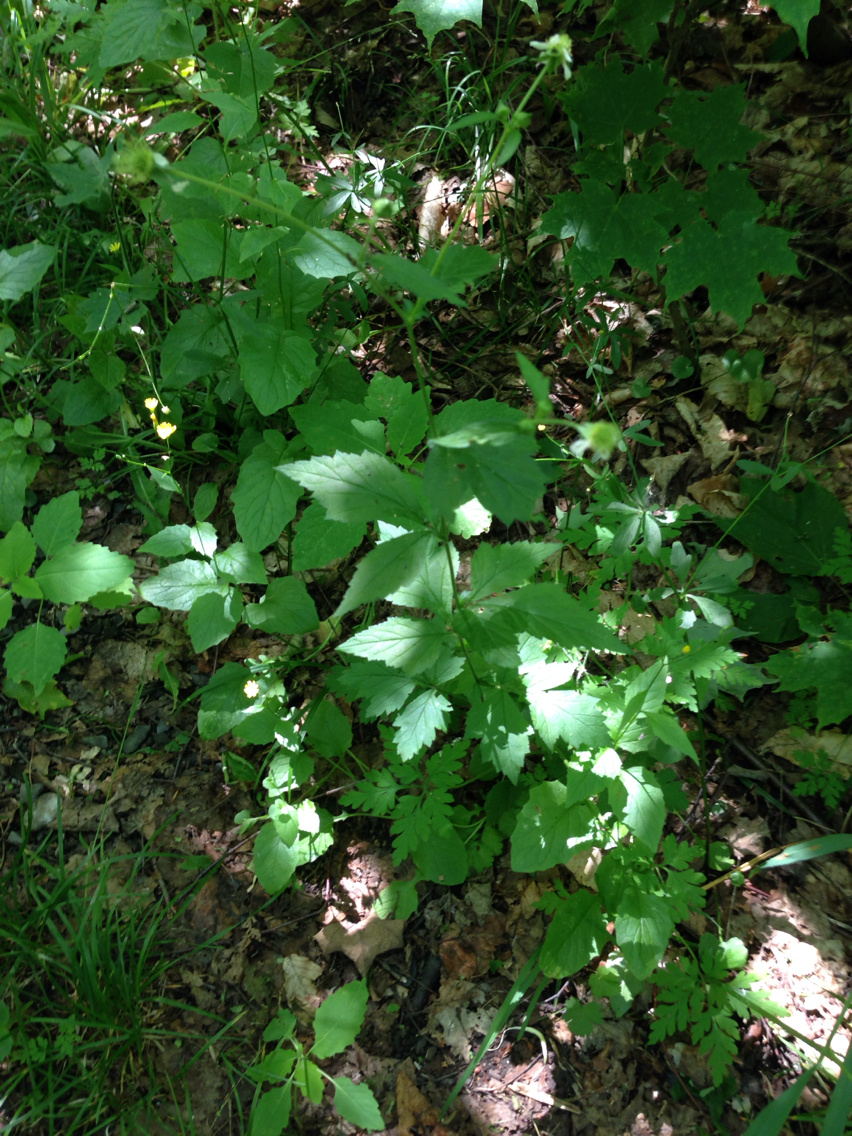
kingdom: Plantae
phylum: Tracheophyta
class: Magnoliopsida
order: Rosales
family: Rosaceae
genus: Geum
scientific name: Geum canadense
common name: White avens
